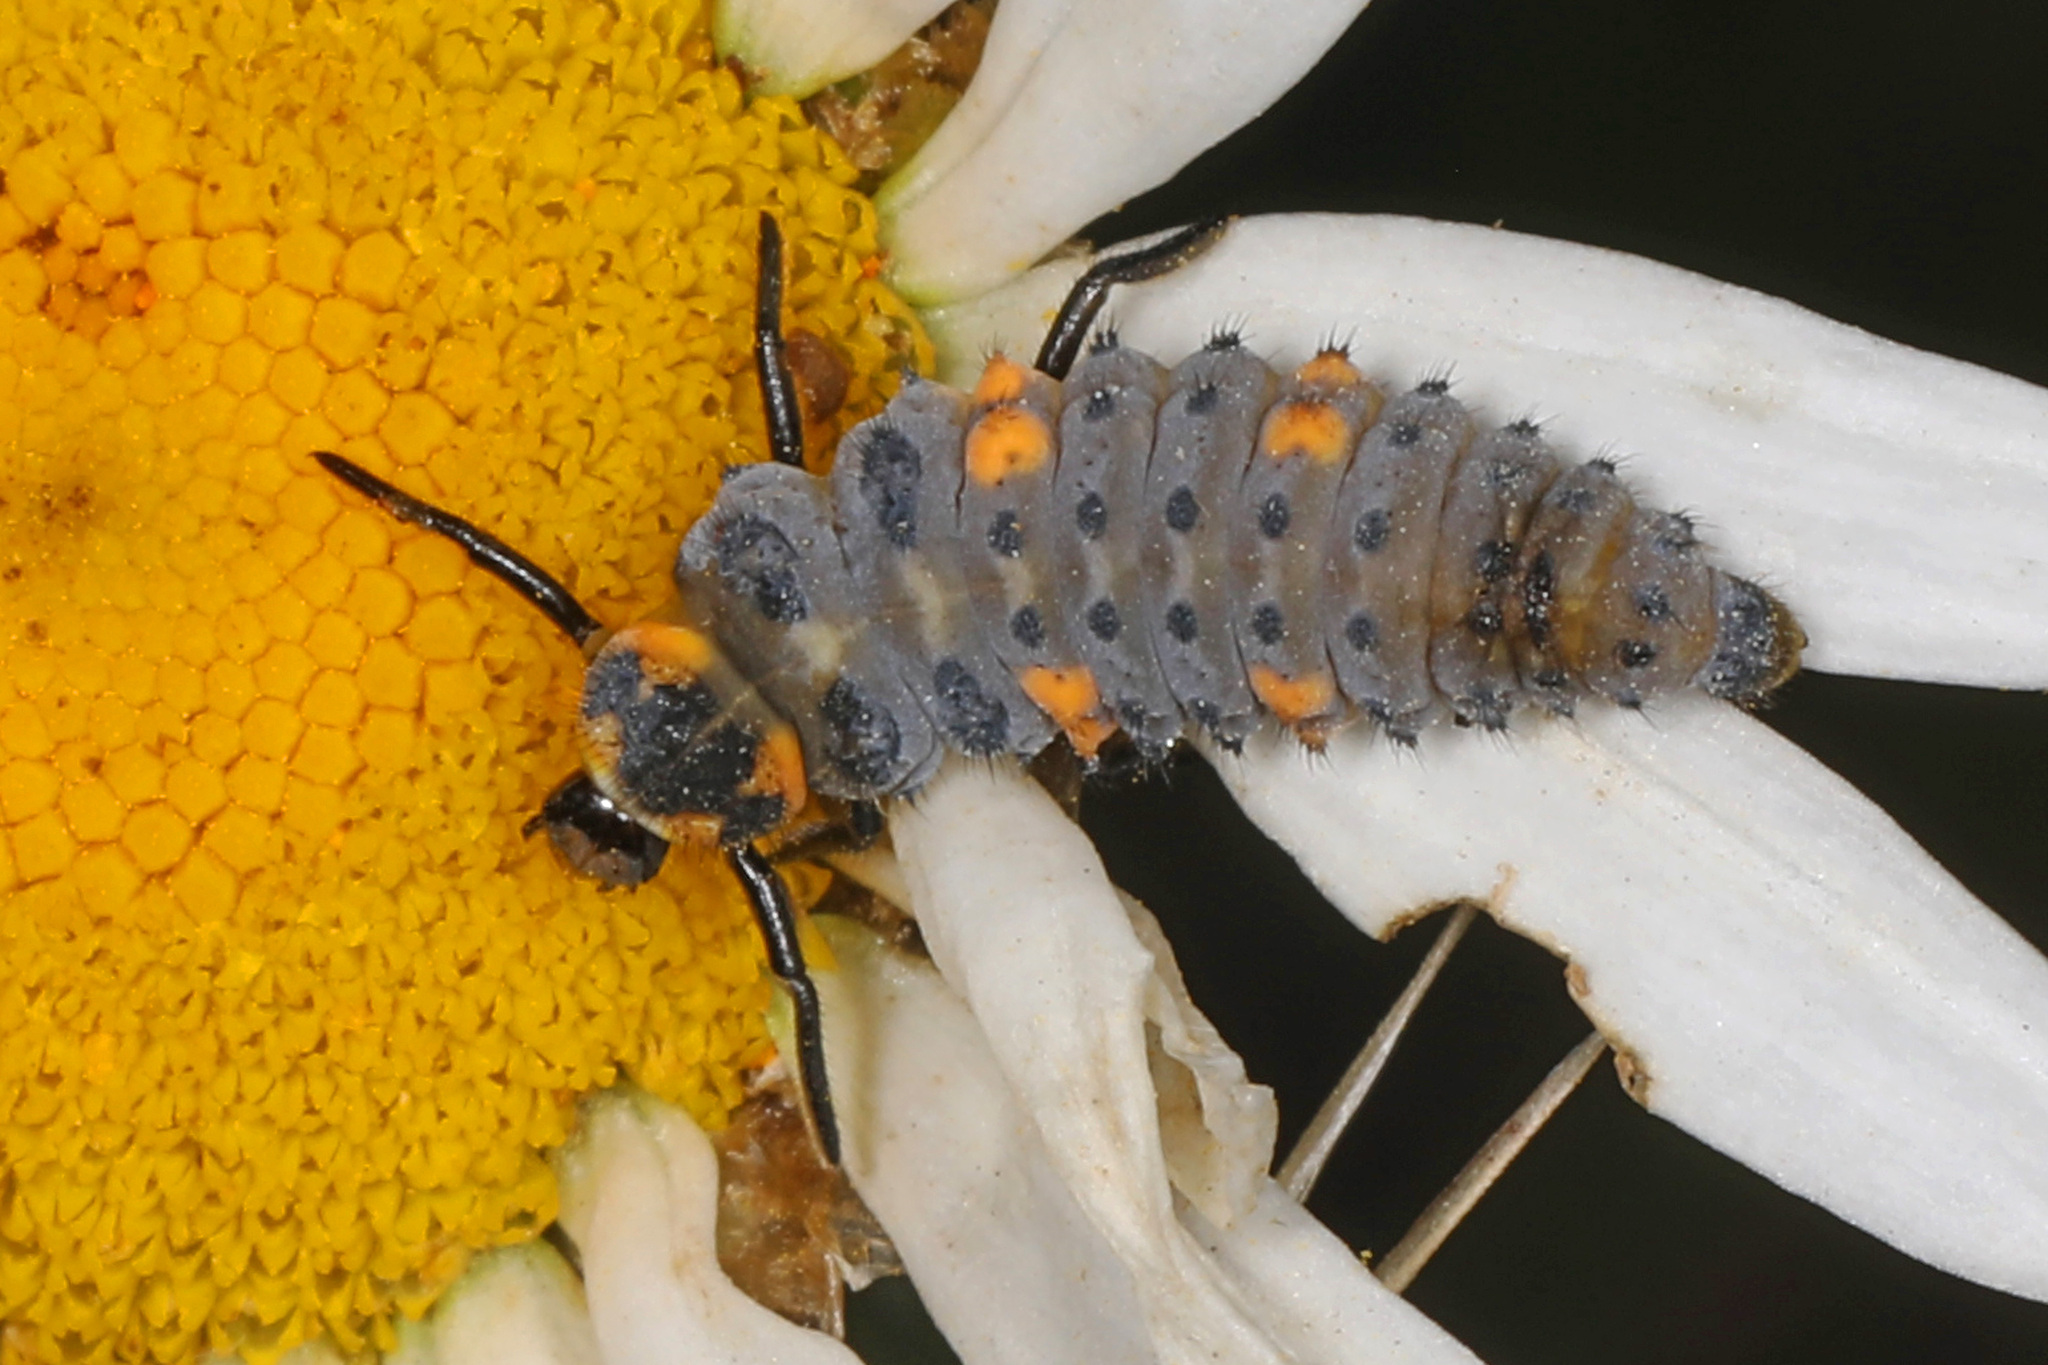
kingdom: Animalia
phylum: Arthropoda
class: Insecta
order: Coleoptera
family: Coccinellidae
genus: Coccinella
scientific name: Coccinella septempunctata
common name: Sevenspotted lady beetle
